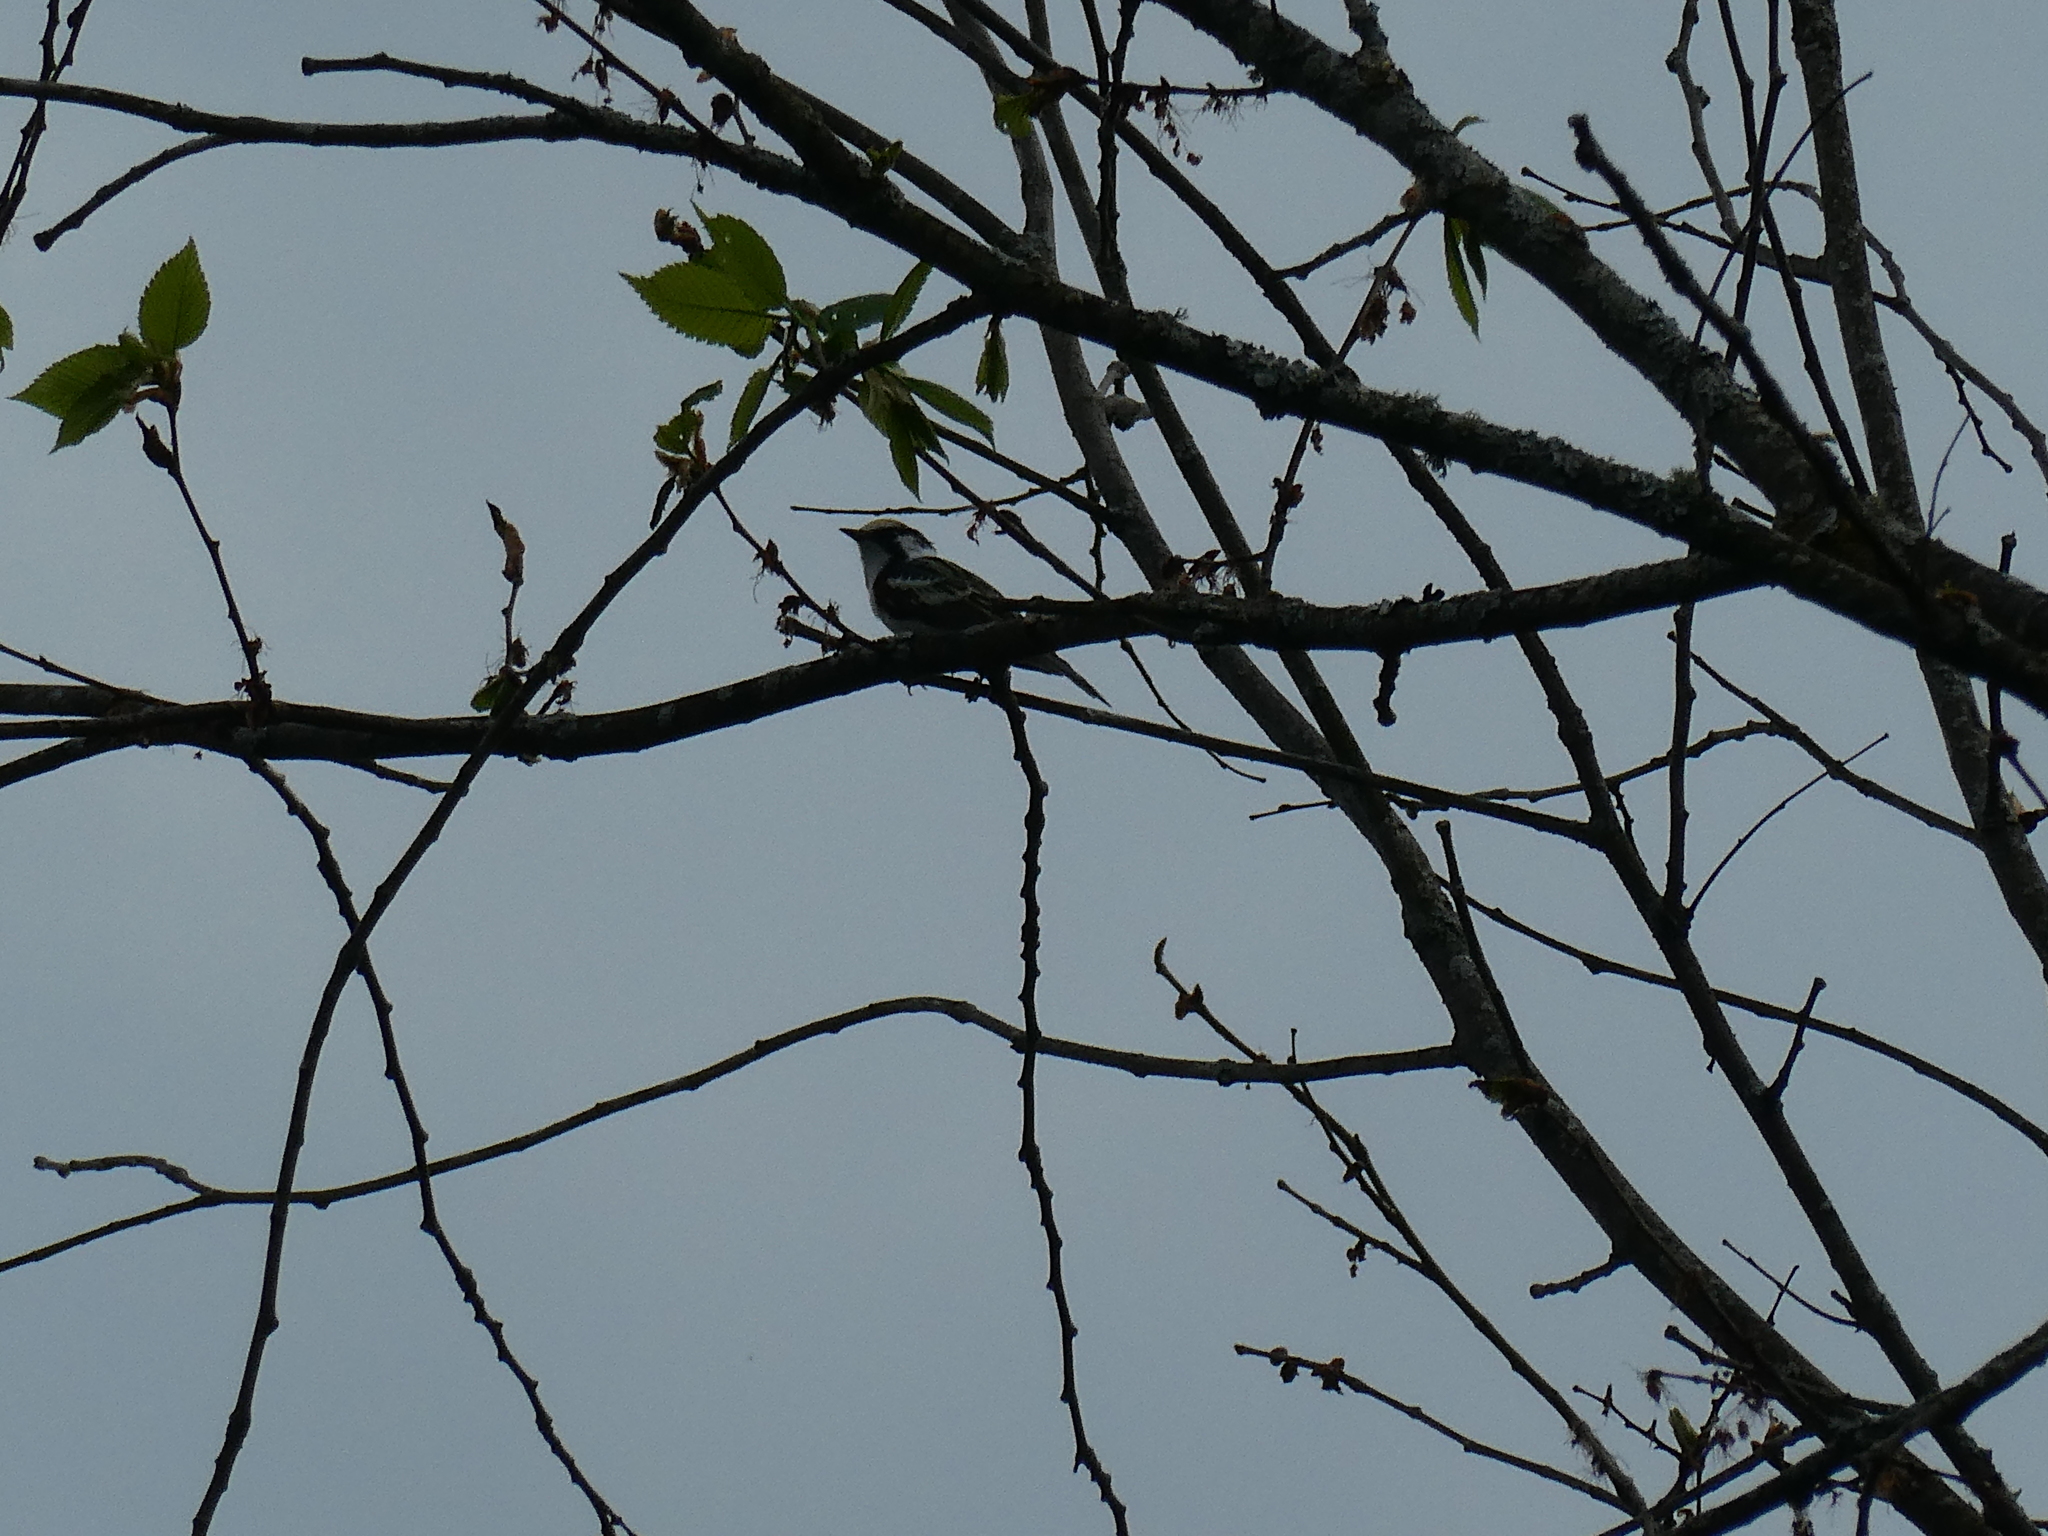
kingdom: Animalia
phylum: Chordata
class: Aves
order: Passeriformes
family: Parulidae
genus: Setophaga
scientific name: Setophaga pensylvanica
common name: Chestnut-sided warbler
